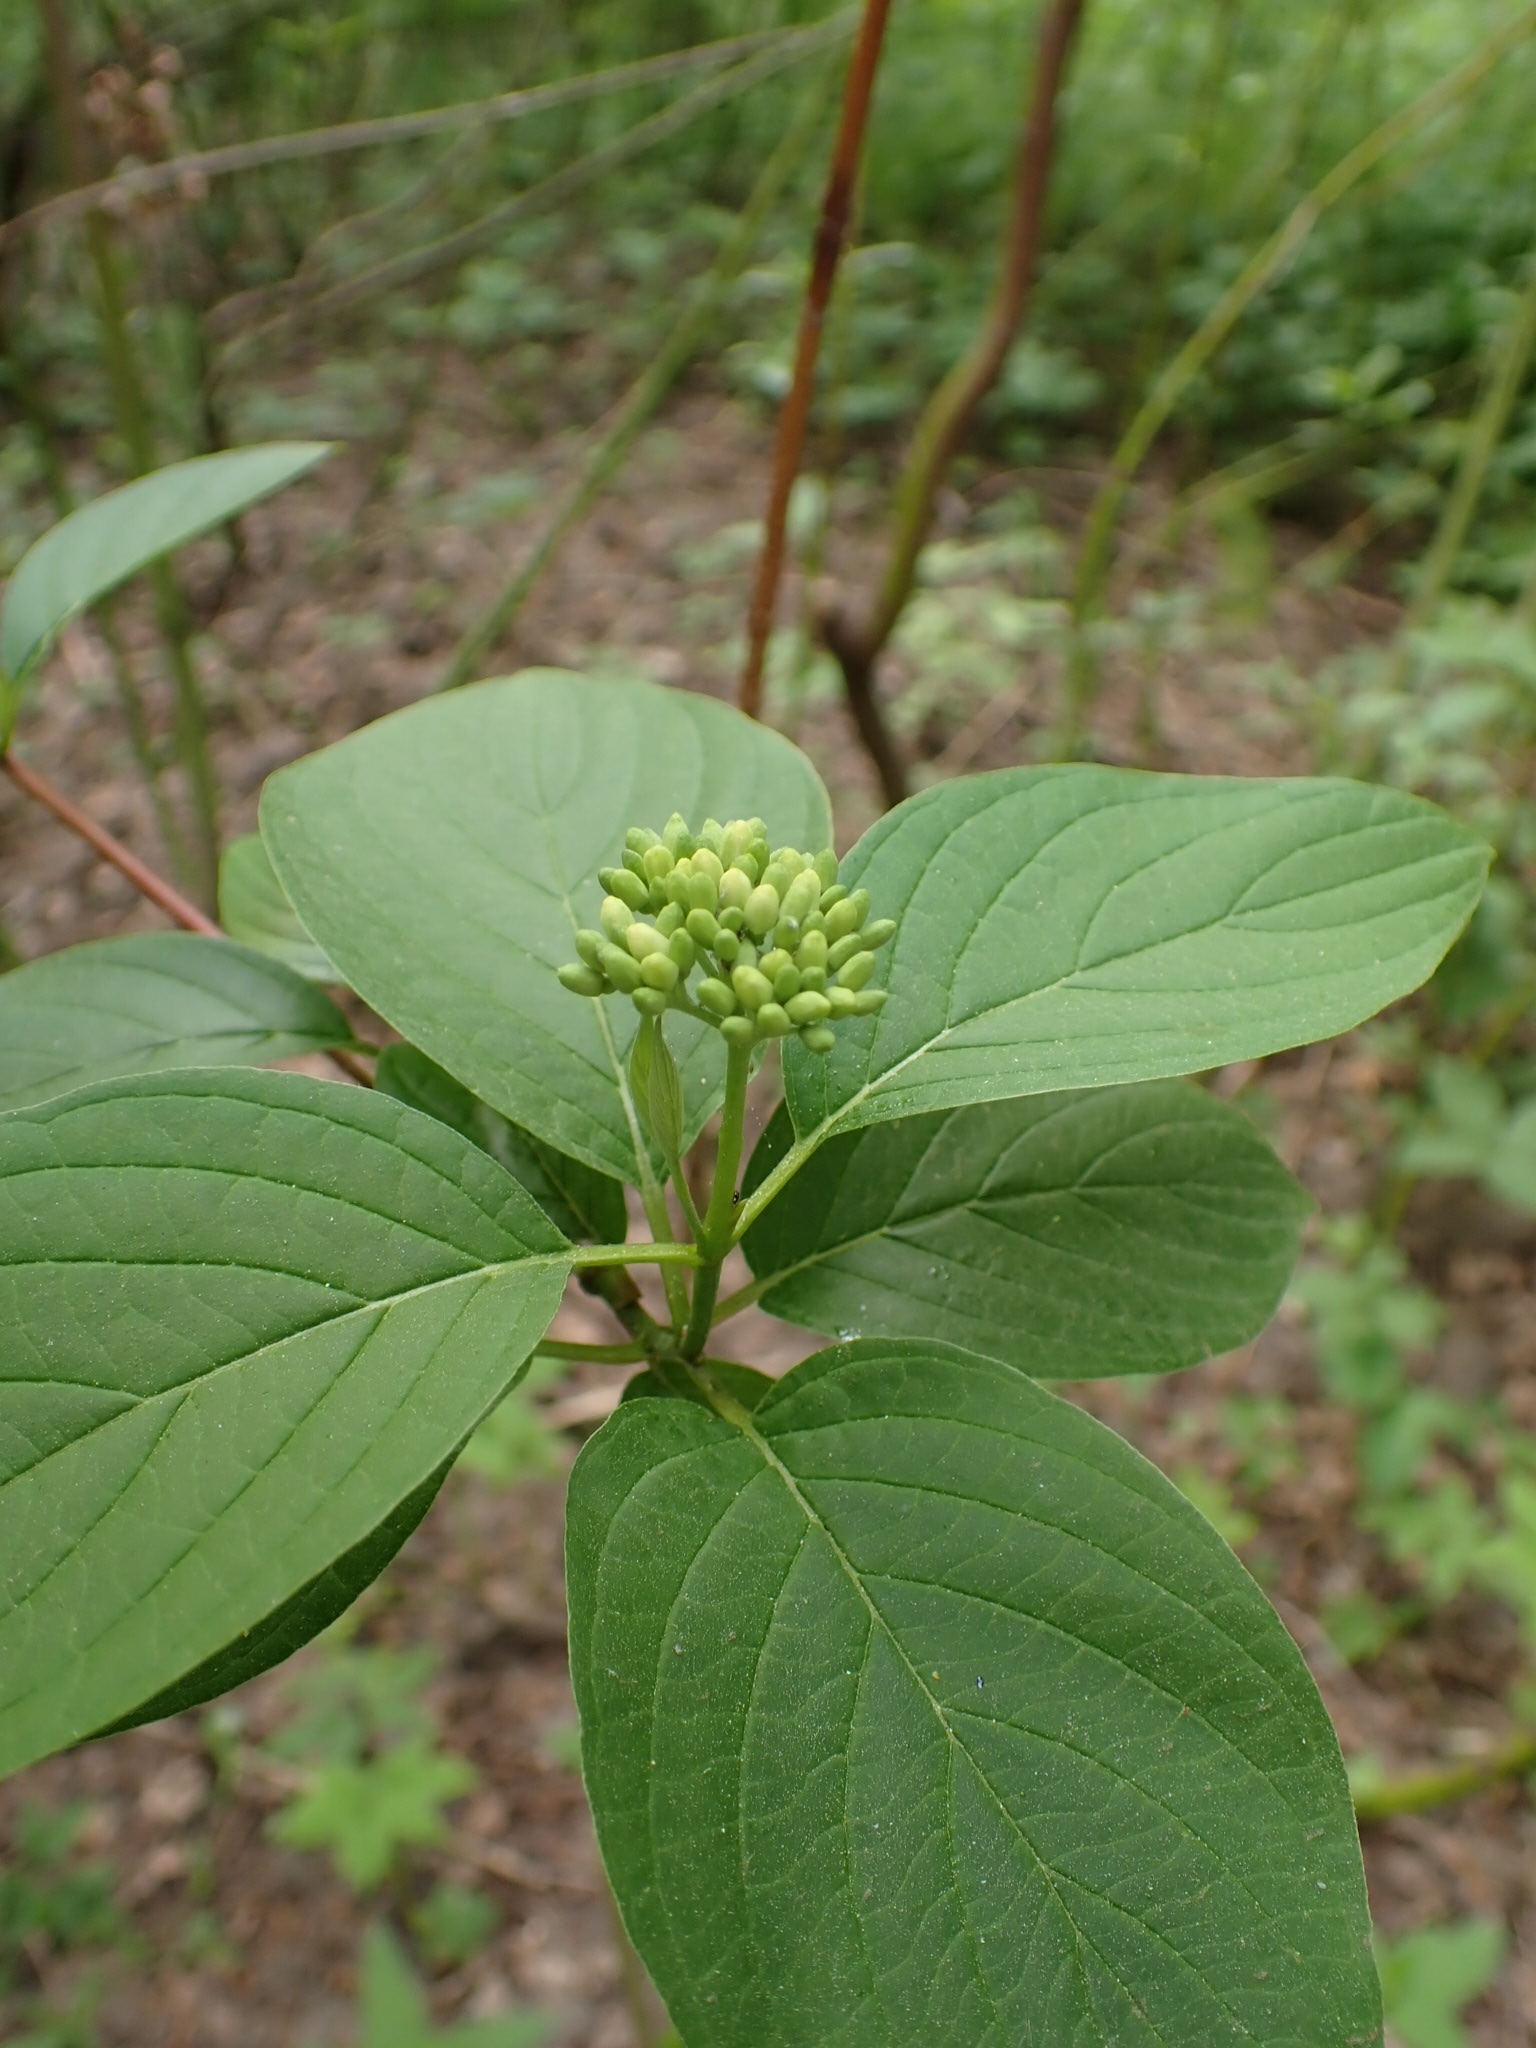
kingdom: Plantae
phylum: Tracheophyta
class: Magnoliopsida
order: Cornales
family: Cornaceae
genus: Cornus
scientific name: Cornus alba
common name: White dogwood
